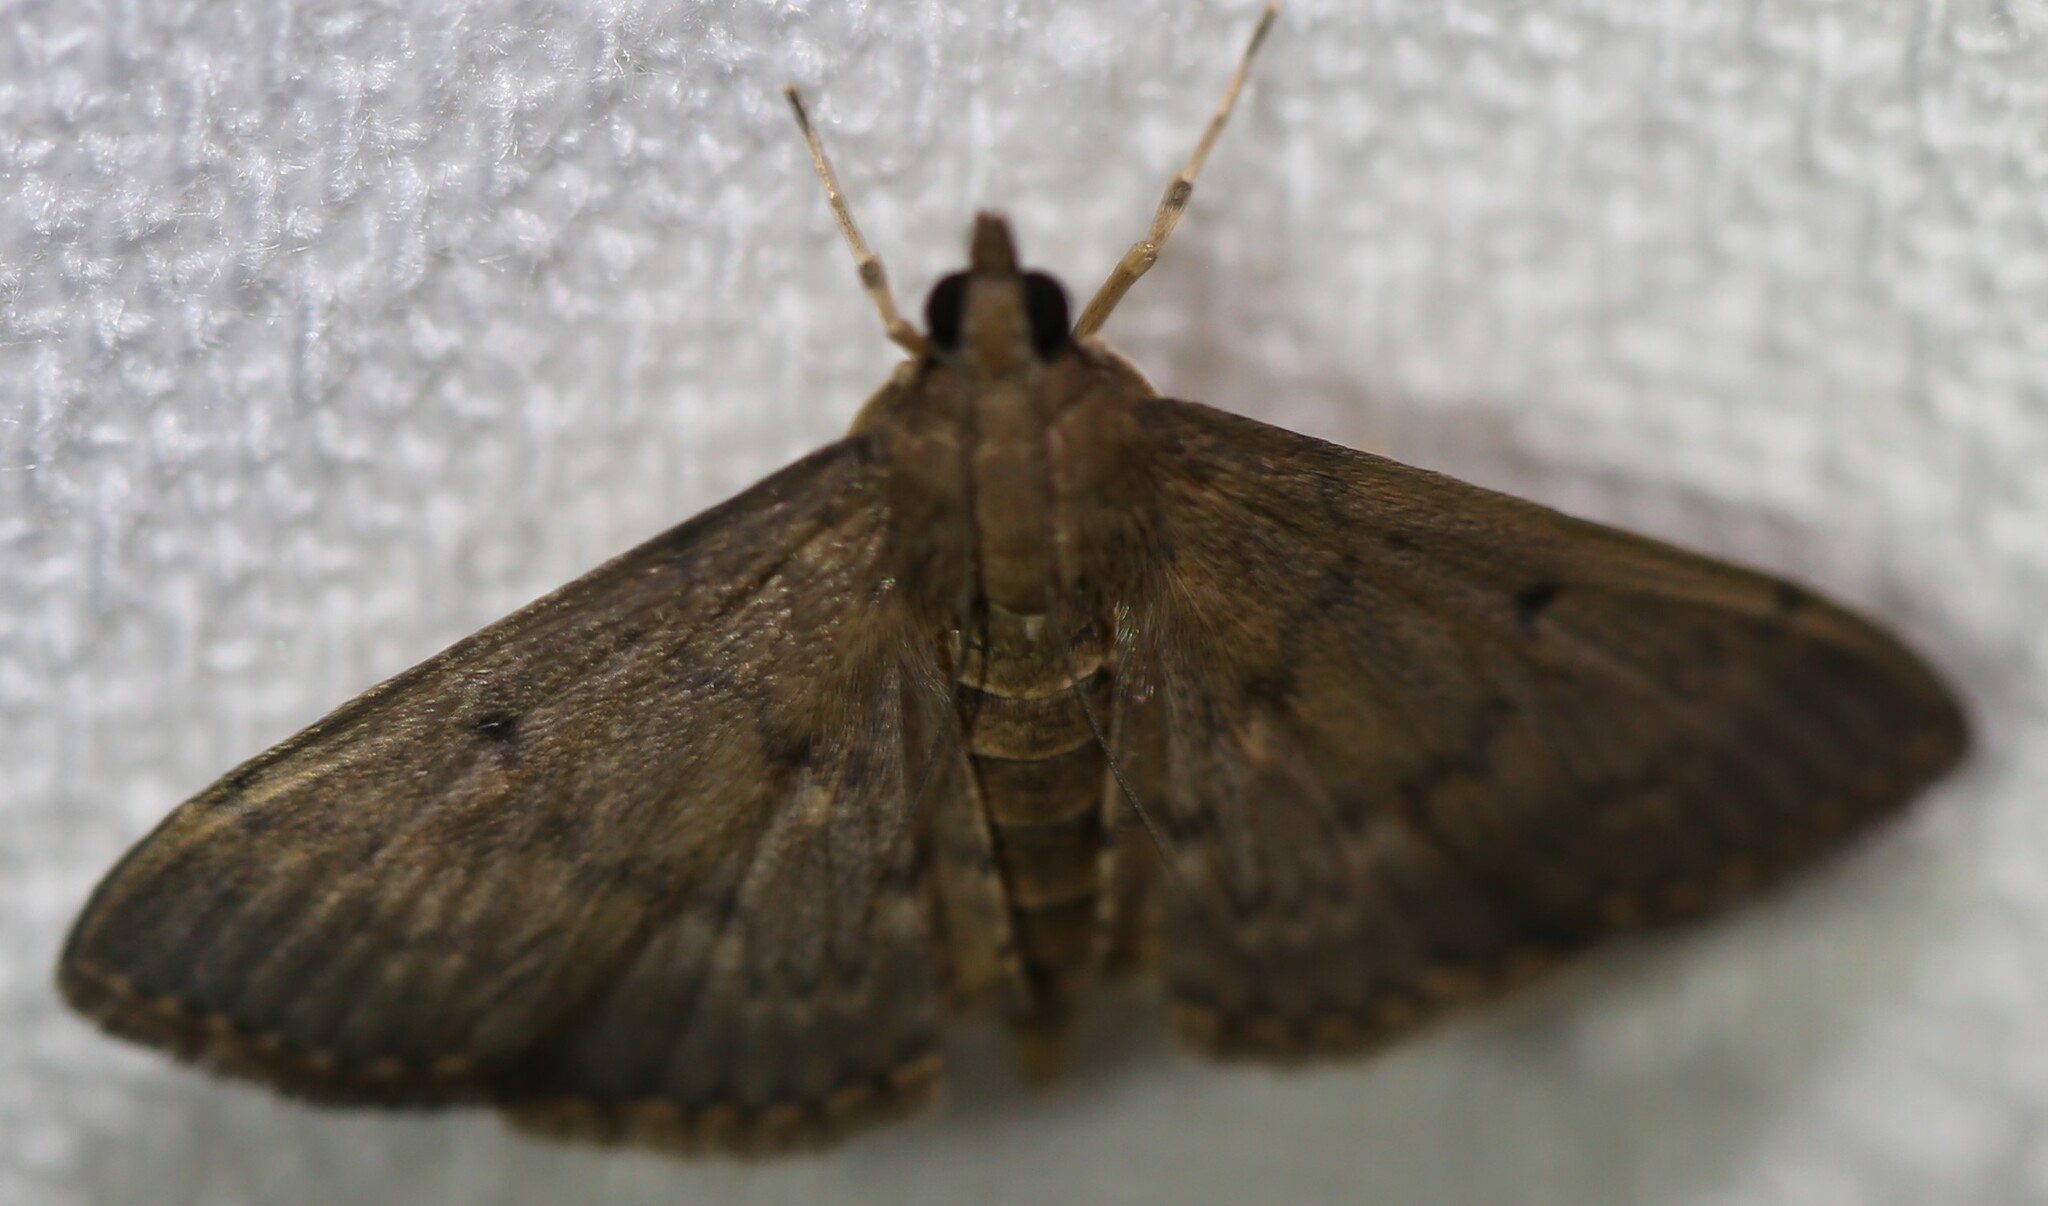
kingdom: Animalia
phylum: Arthropoda
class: Insecta
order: Lepidoptera
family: Crambidae
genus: Herpetogramma
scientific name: Herpetogramma licarsisalis
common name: Grass webworm
